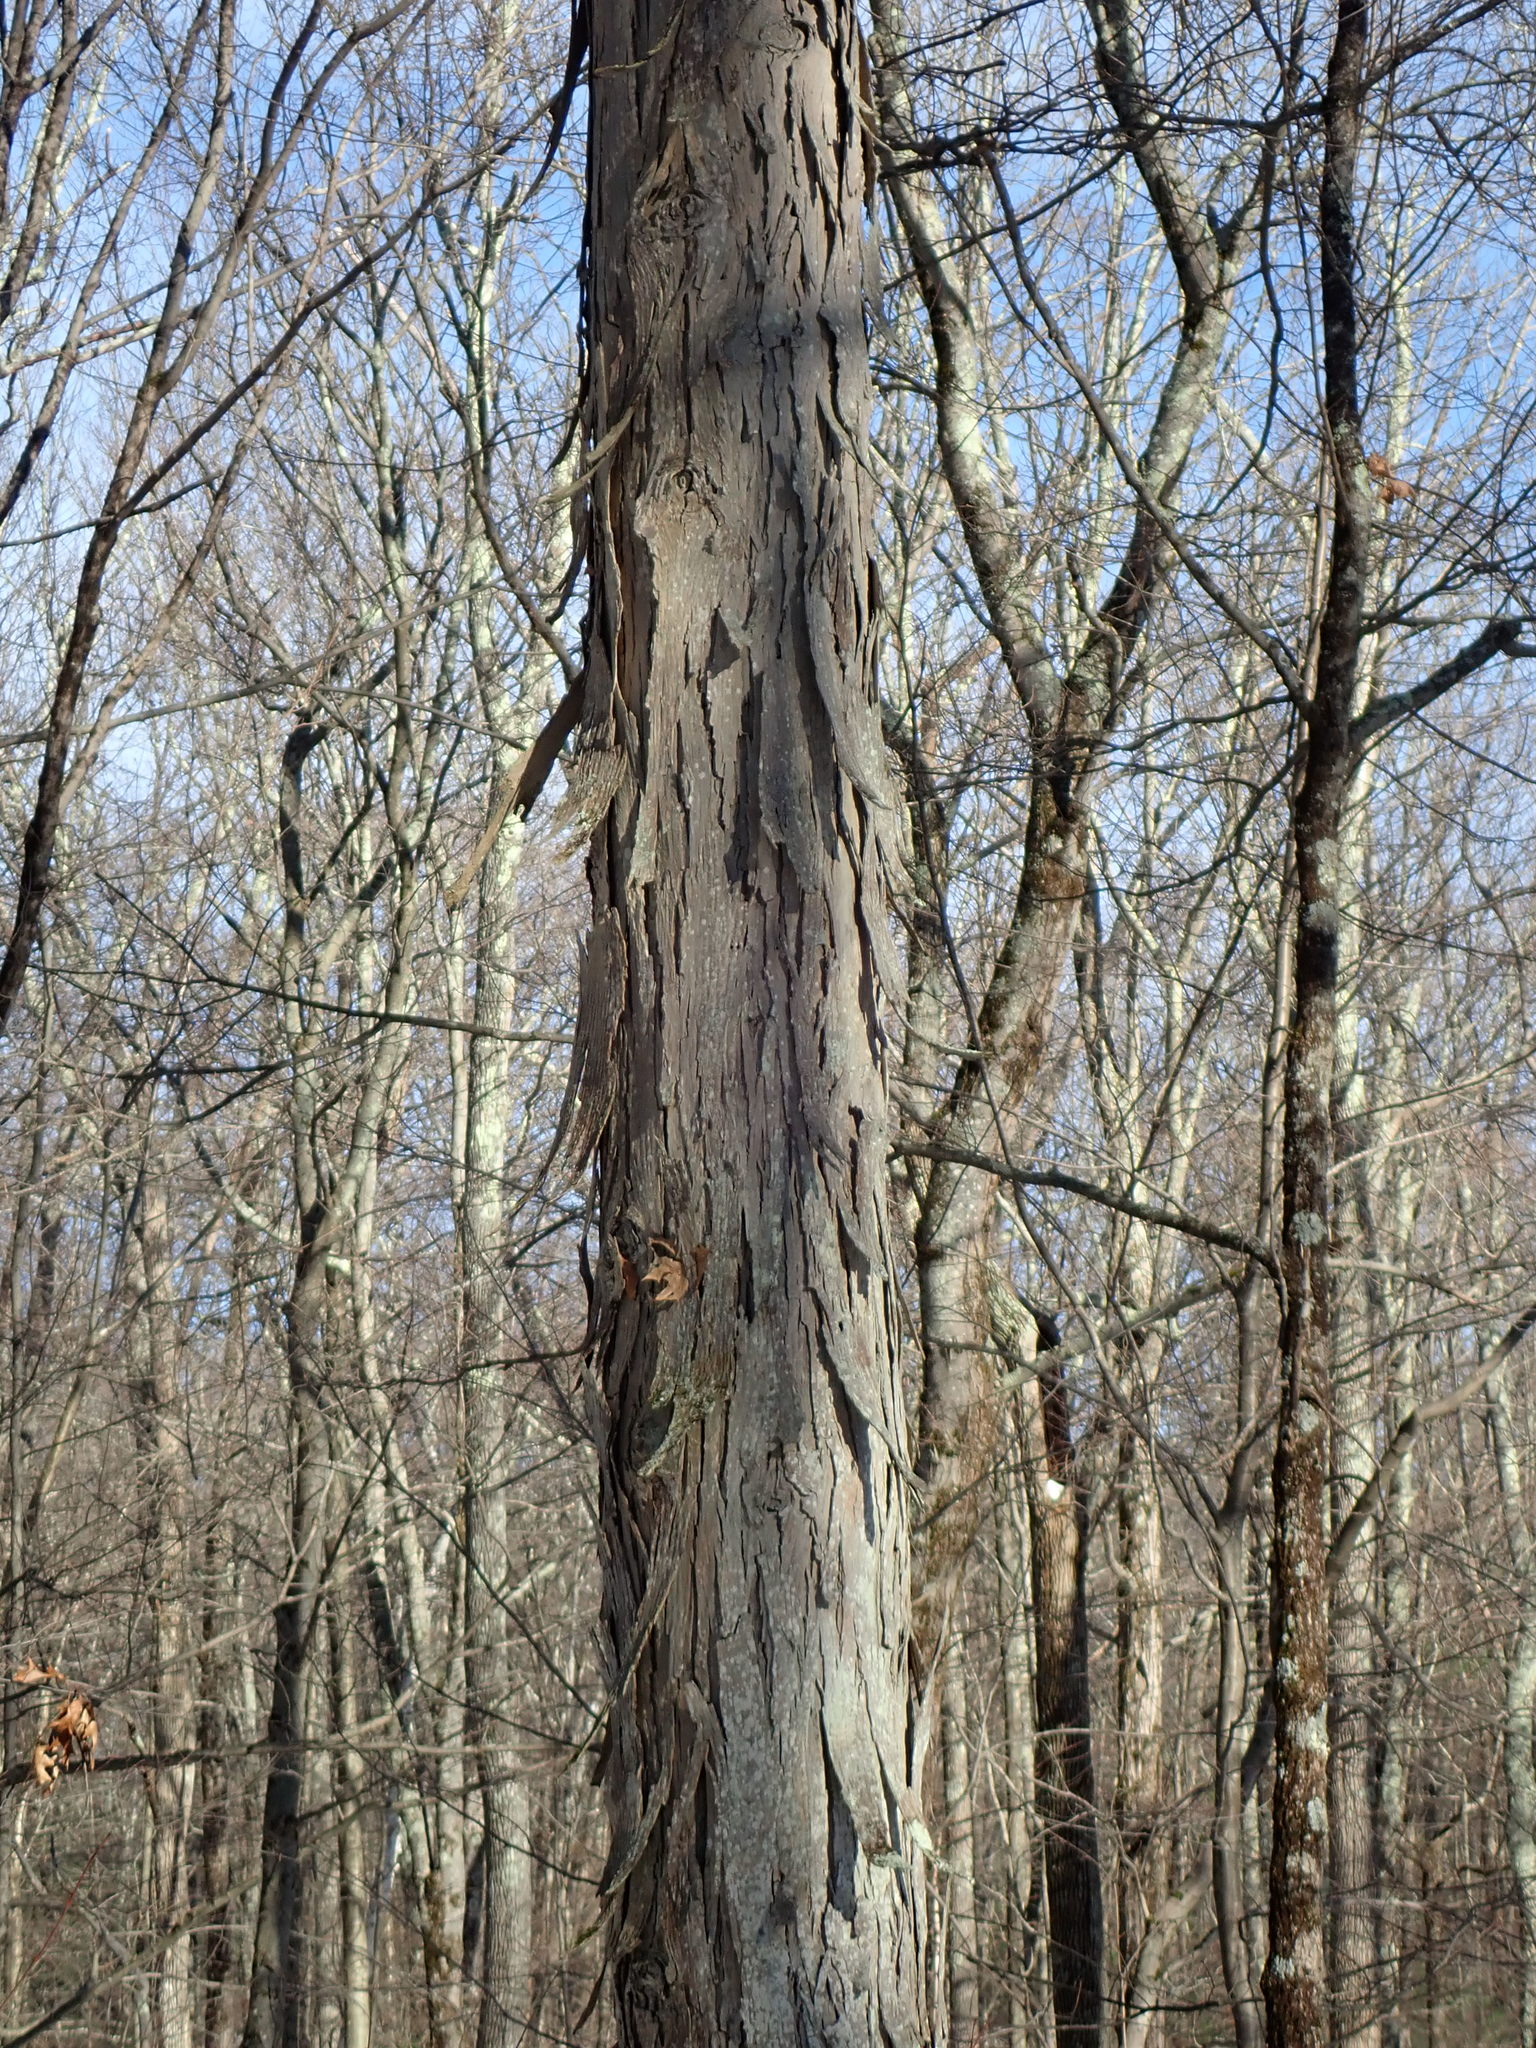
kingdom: Plantae
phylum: Tracheophyta
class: Magnoliopsida
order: Fagales
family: Juglandaceae
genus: Carya
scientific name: Carya ovata
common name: Shagbark hickory
